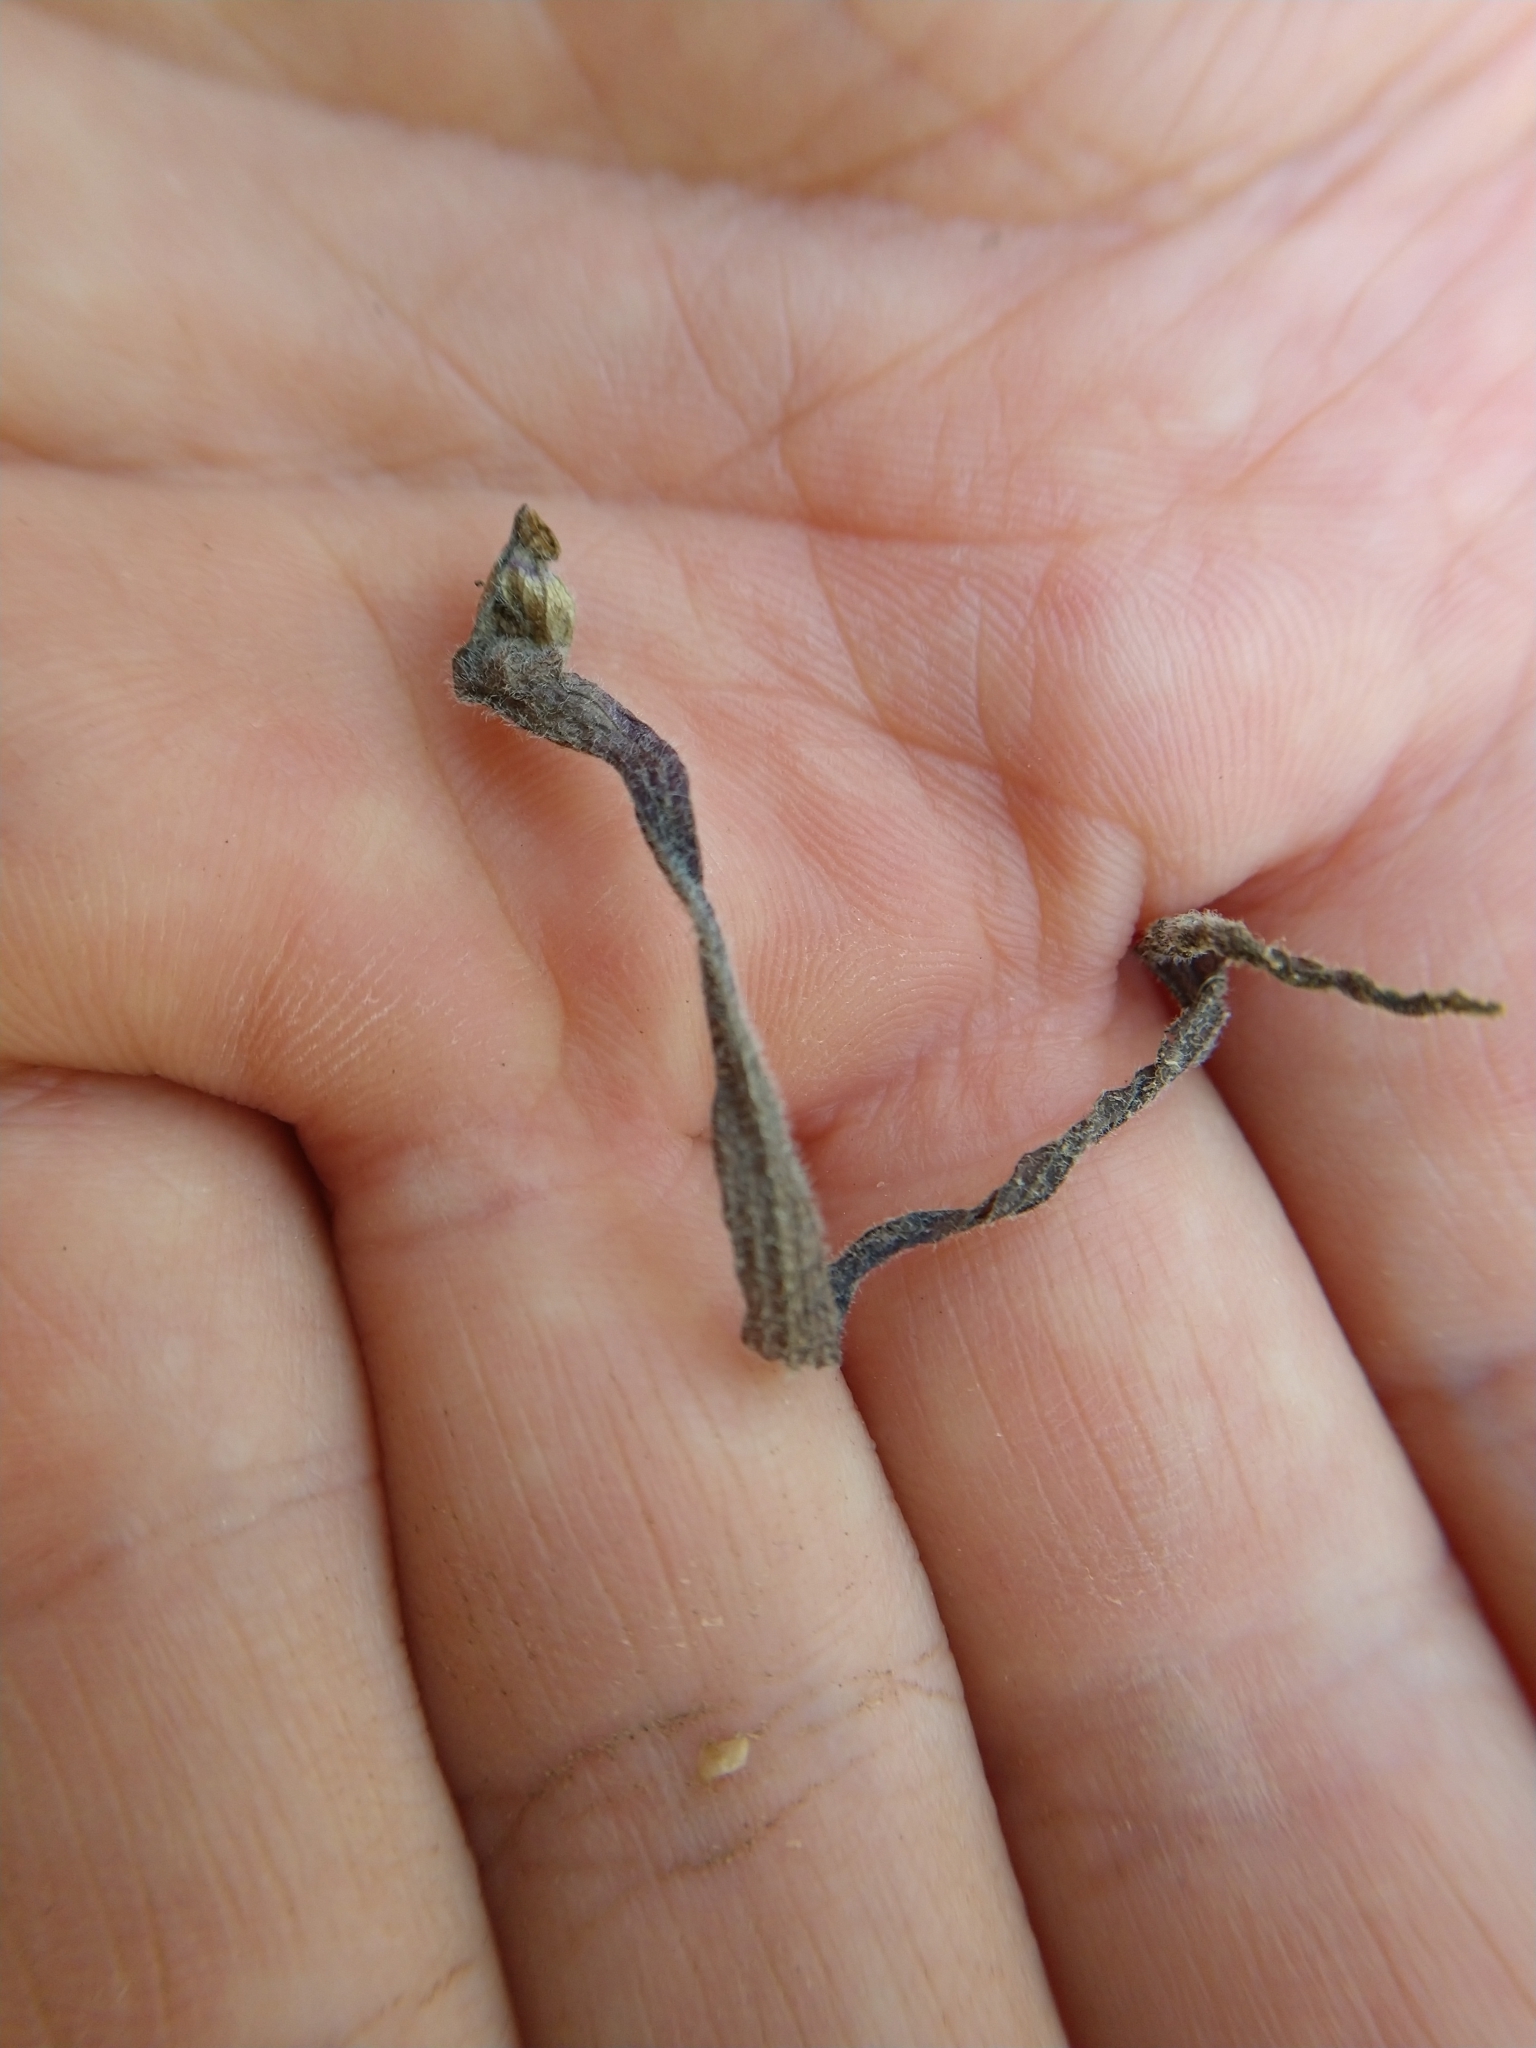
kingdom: Plantae
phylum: Tracheophyta
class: Magnoliopsida
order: Piperales
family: Aristolochiaceae
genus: Aristolochia
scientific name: Aristolochia erecta
